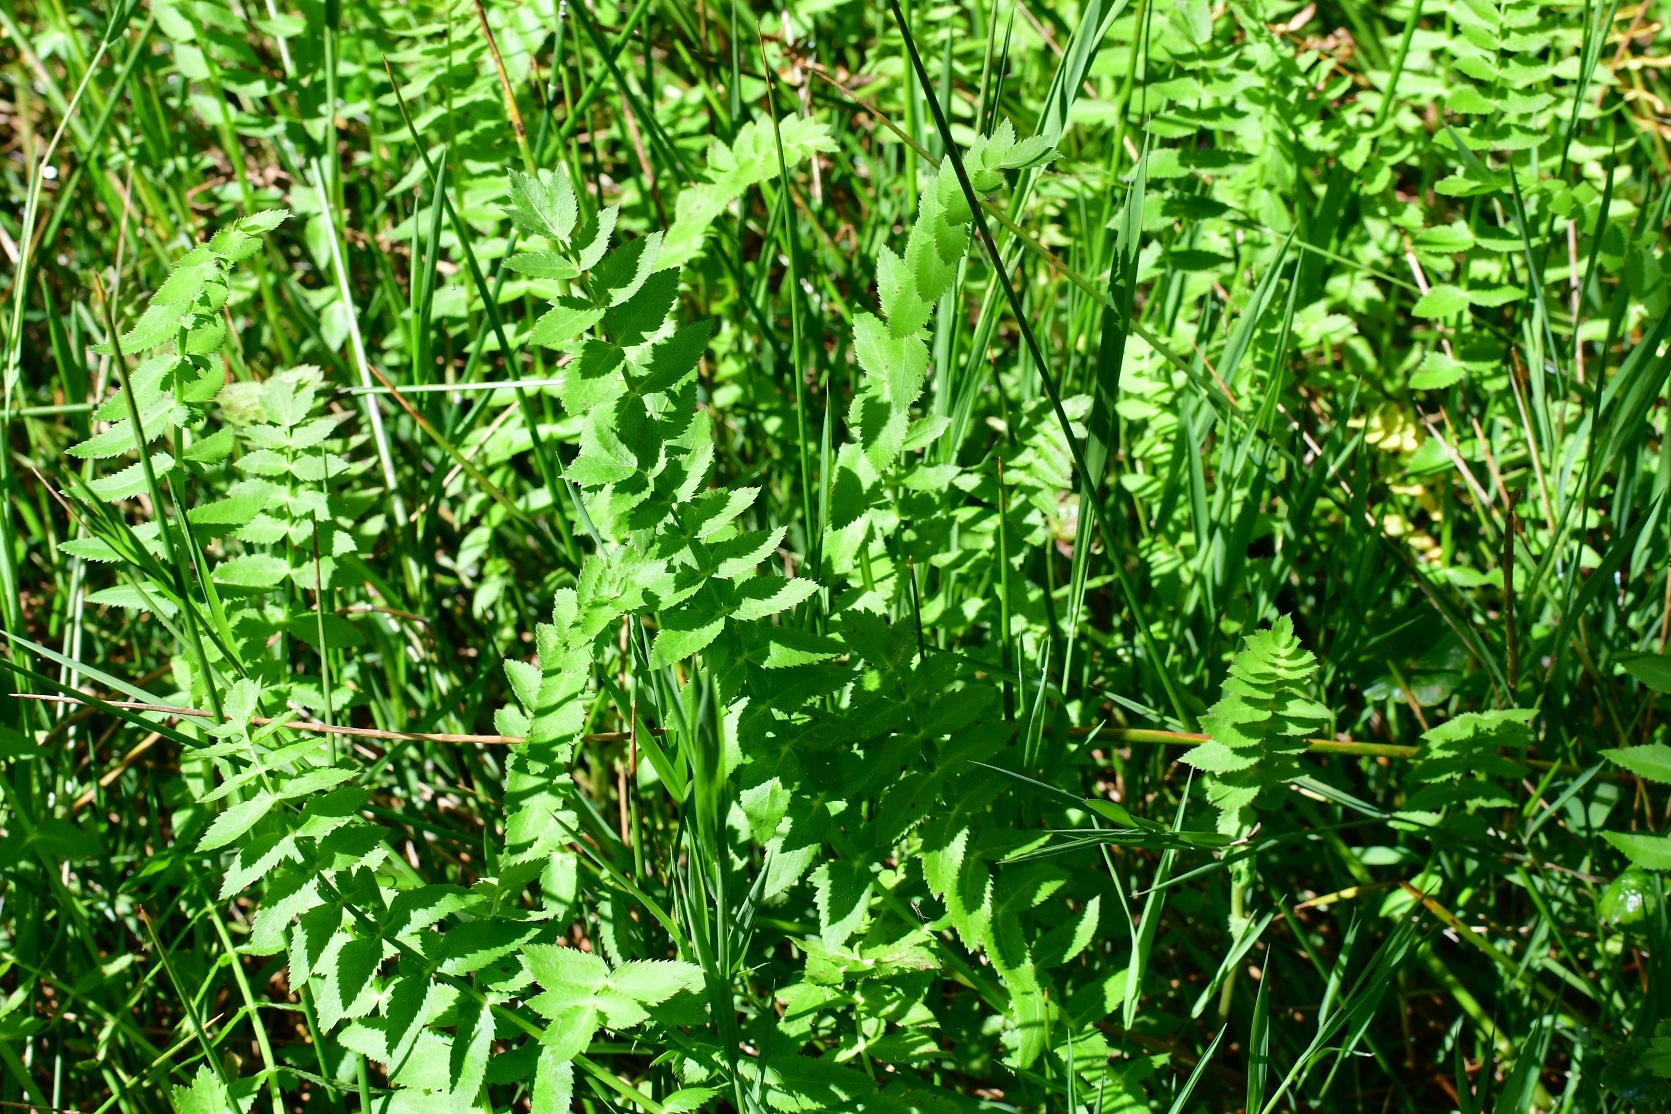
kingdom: Plantae
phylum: Tracheophyta
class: Magnoliopsida
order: Apiales
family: Apiaceae
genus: Berula
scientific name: Berula erecta
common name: Lesser water-parsnip
